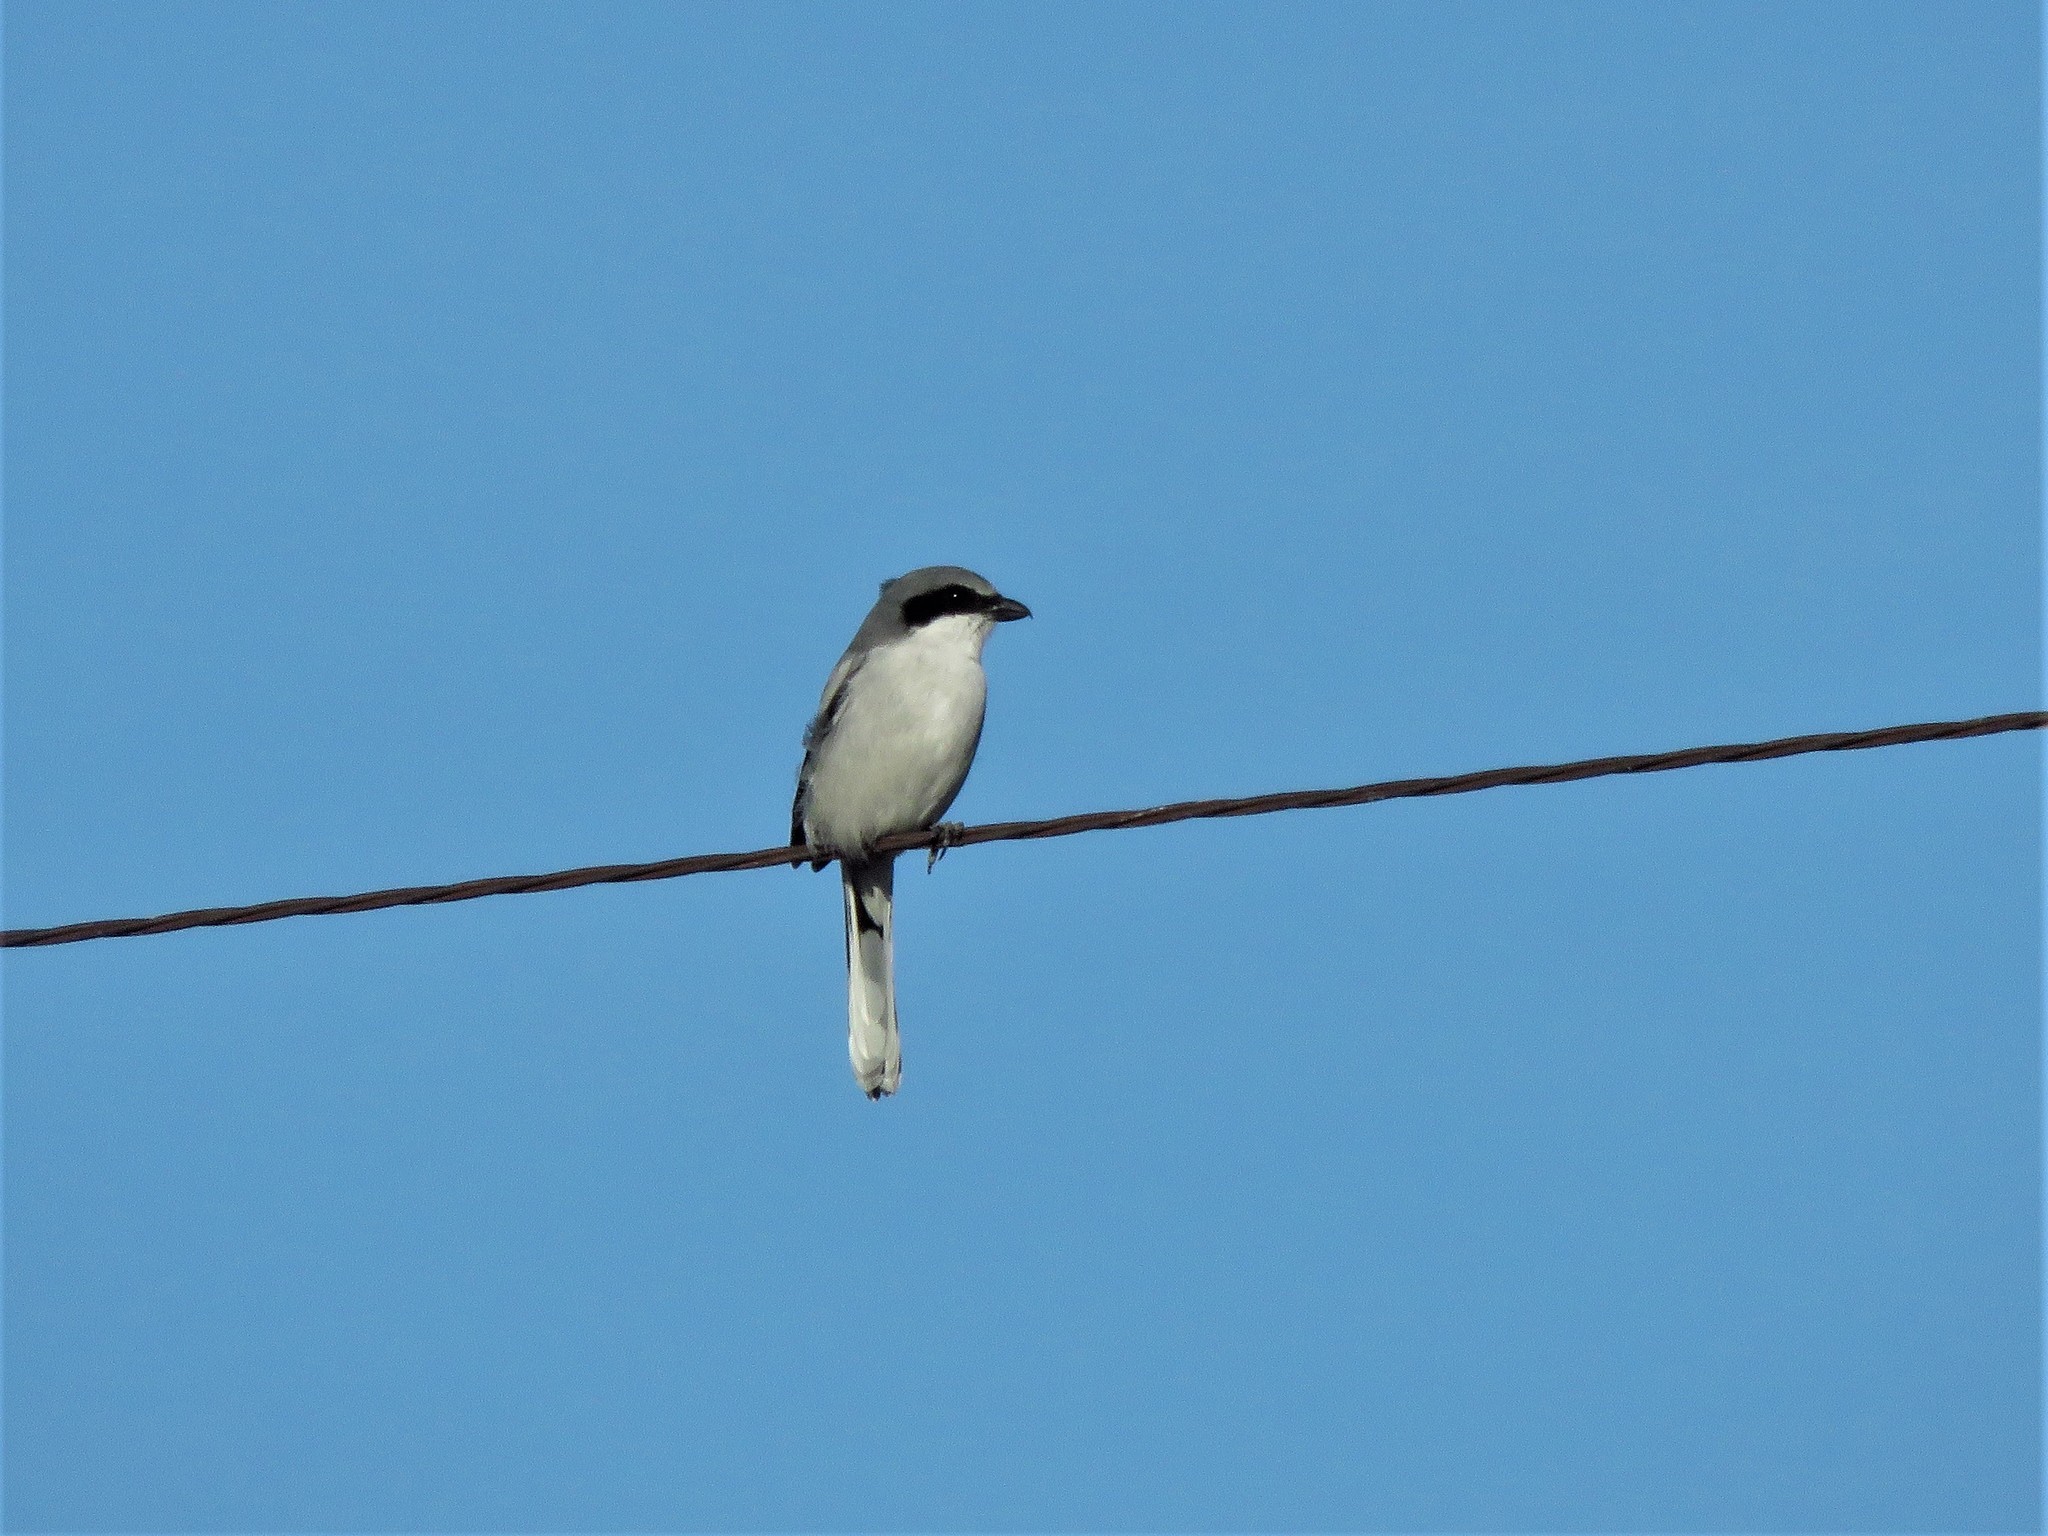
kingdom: Animalia
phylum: Chordata
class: Aves
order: Passeriformes
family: Laniidae
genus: Lanius
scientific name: Lanius ludovicianus
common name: Loggerhead shrike
